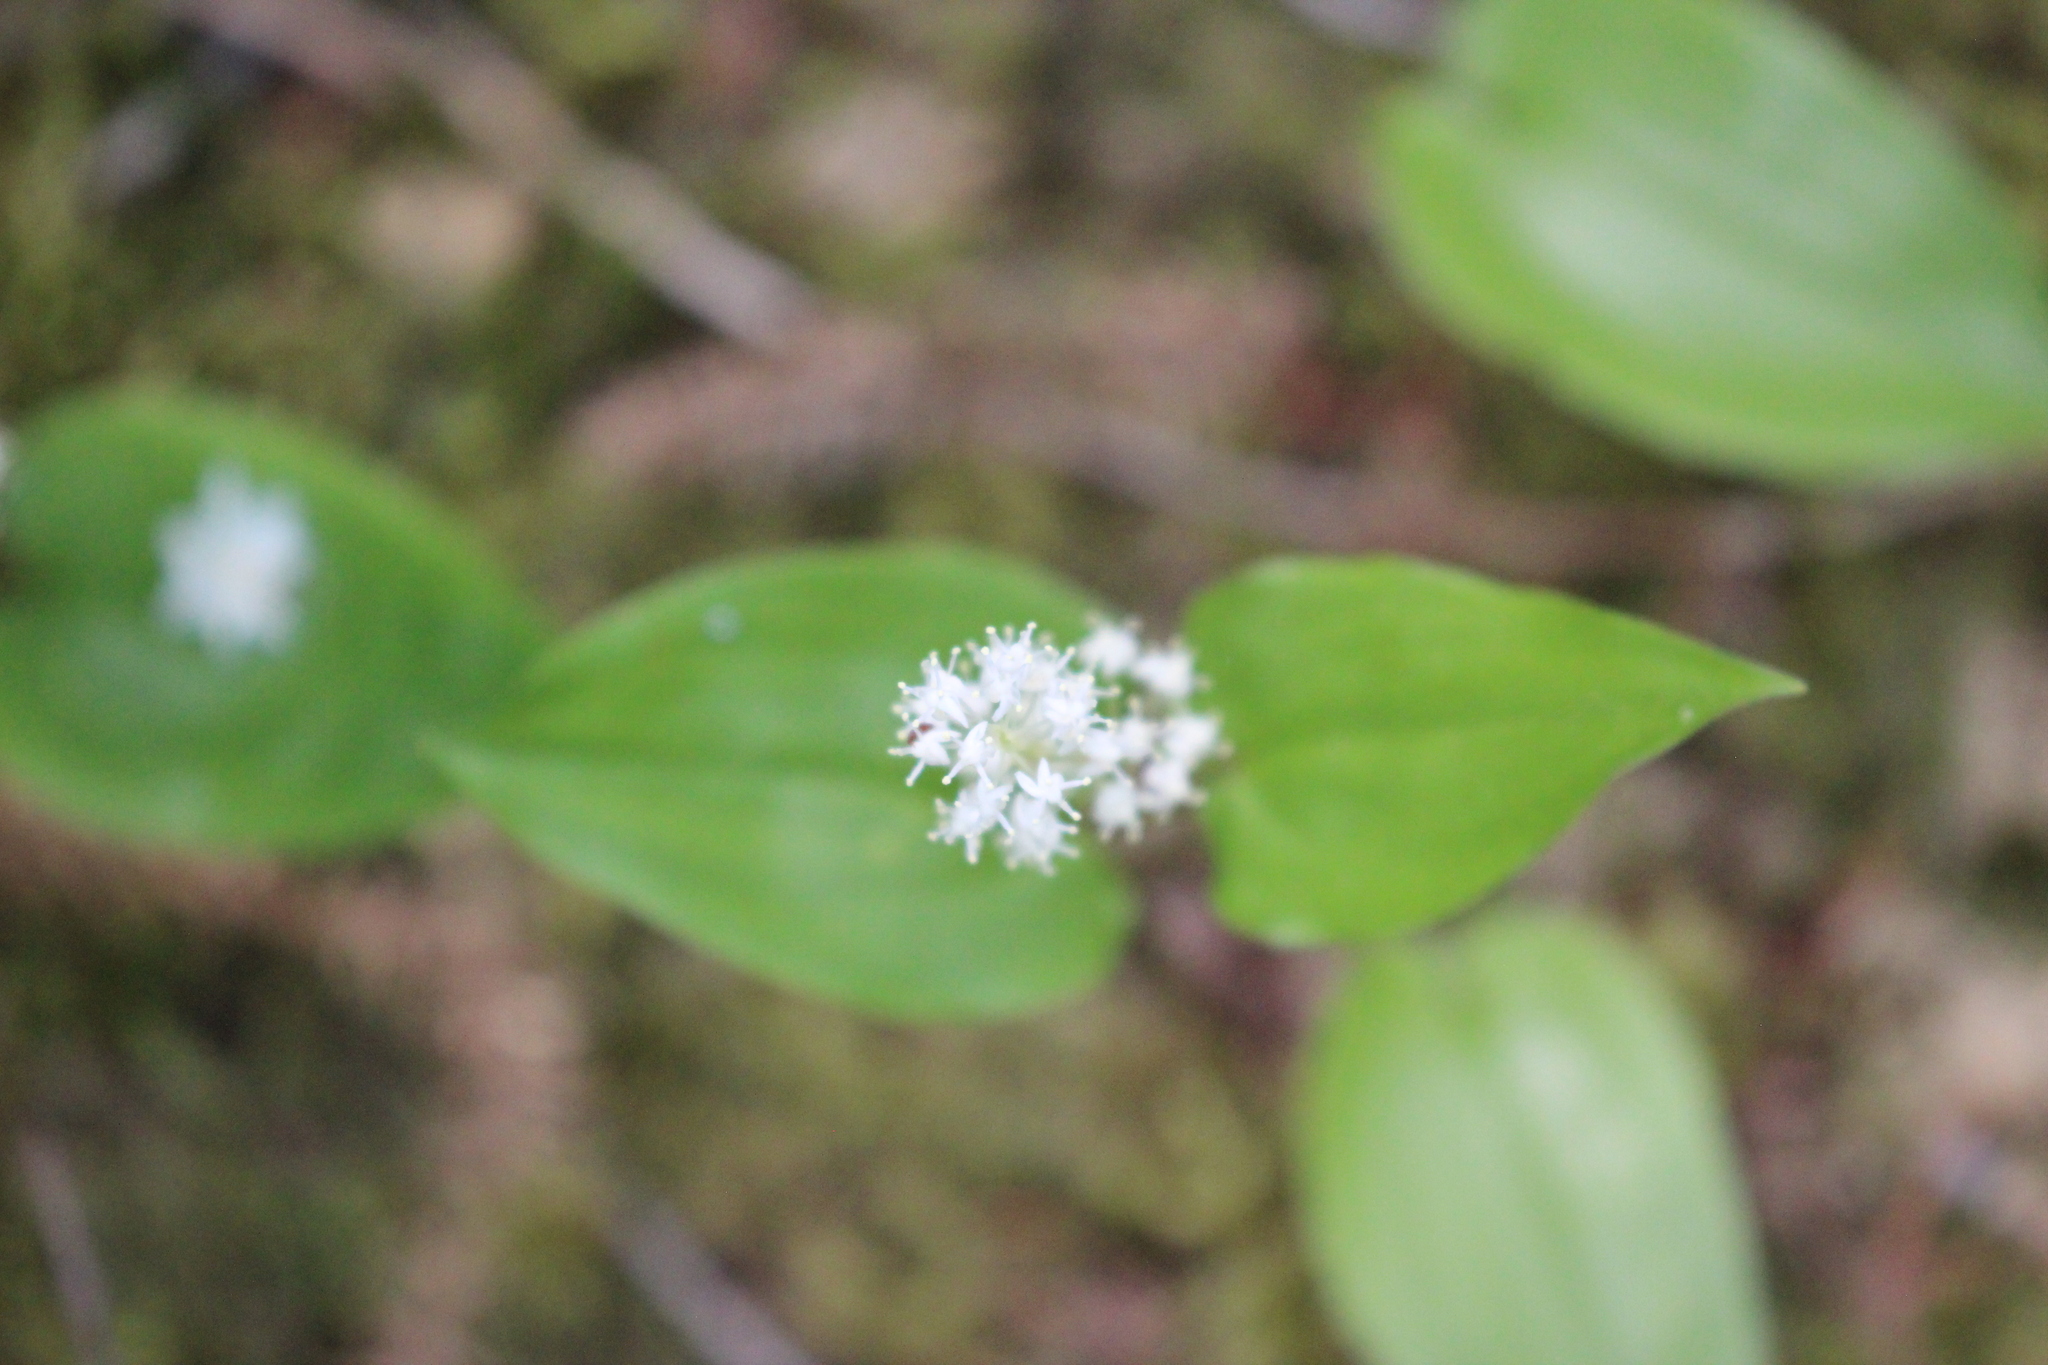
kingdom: Plantae
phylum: Tracheophyta
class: Liliopsida
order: Asparagales
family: Asparagaceae
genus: Maianthemum
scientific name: Maianthemum canadense
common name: False lily-of-the-valley
